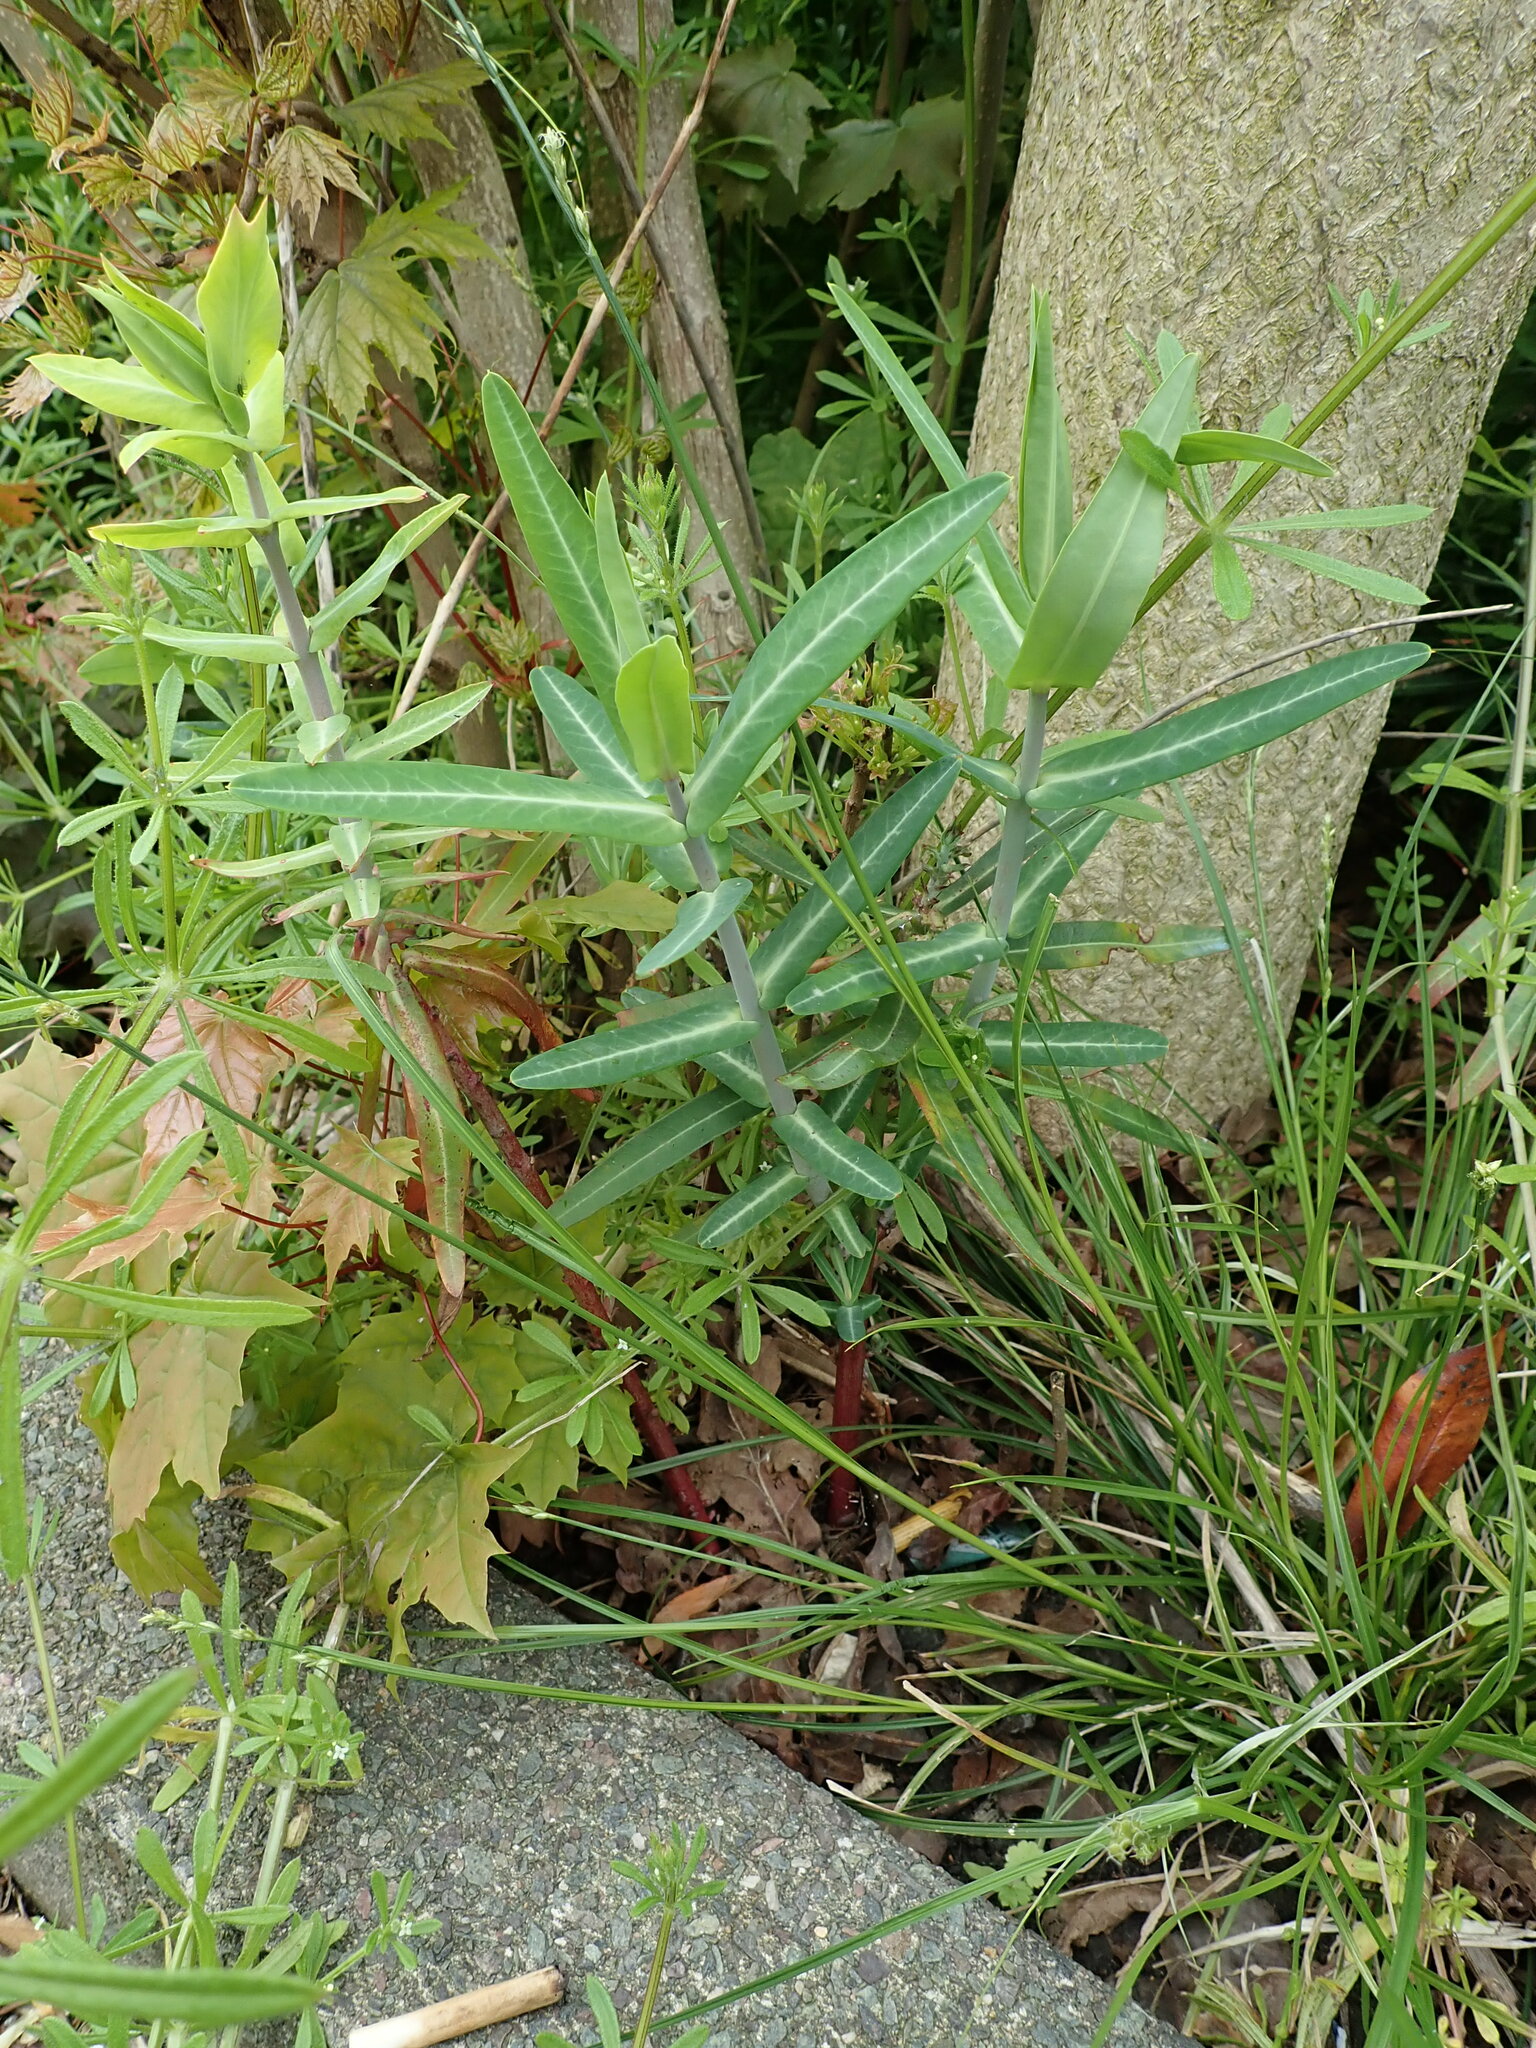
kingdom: Plantae
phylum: Tracheophyta
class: Magnoliopsida
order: Malpighiales
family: Euphorbiaceae
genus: Euphorbia
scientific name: Euphorbia lathyris
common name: Caper spurge
